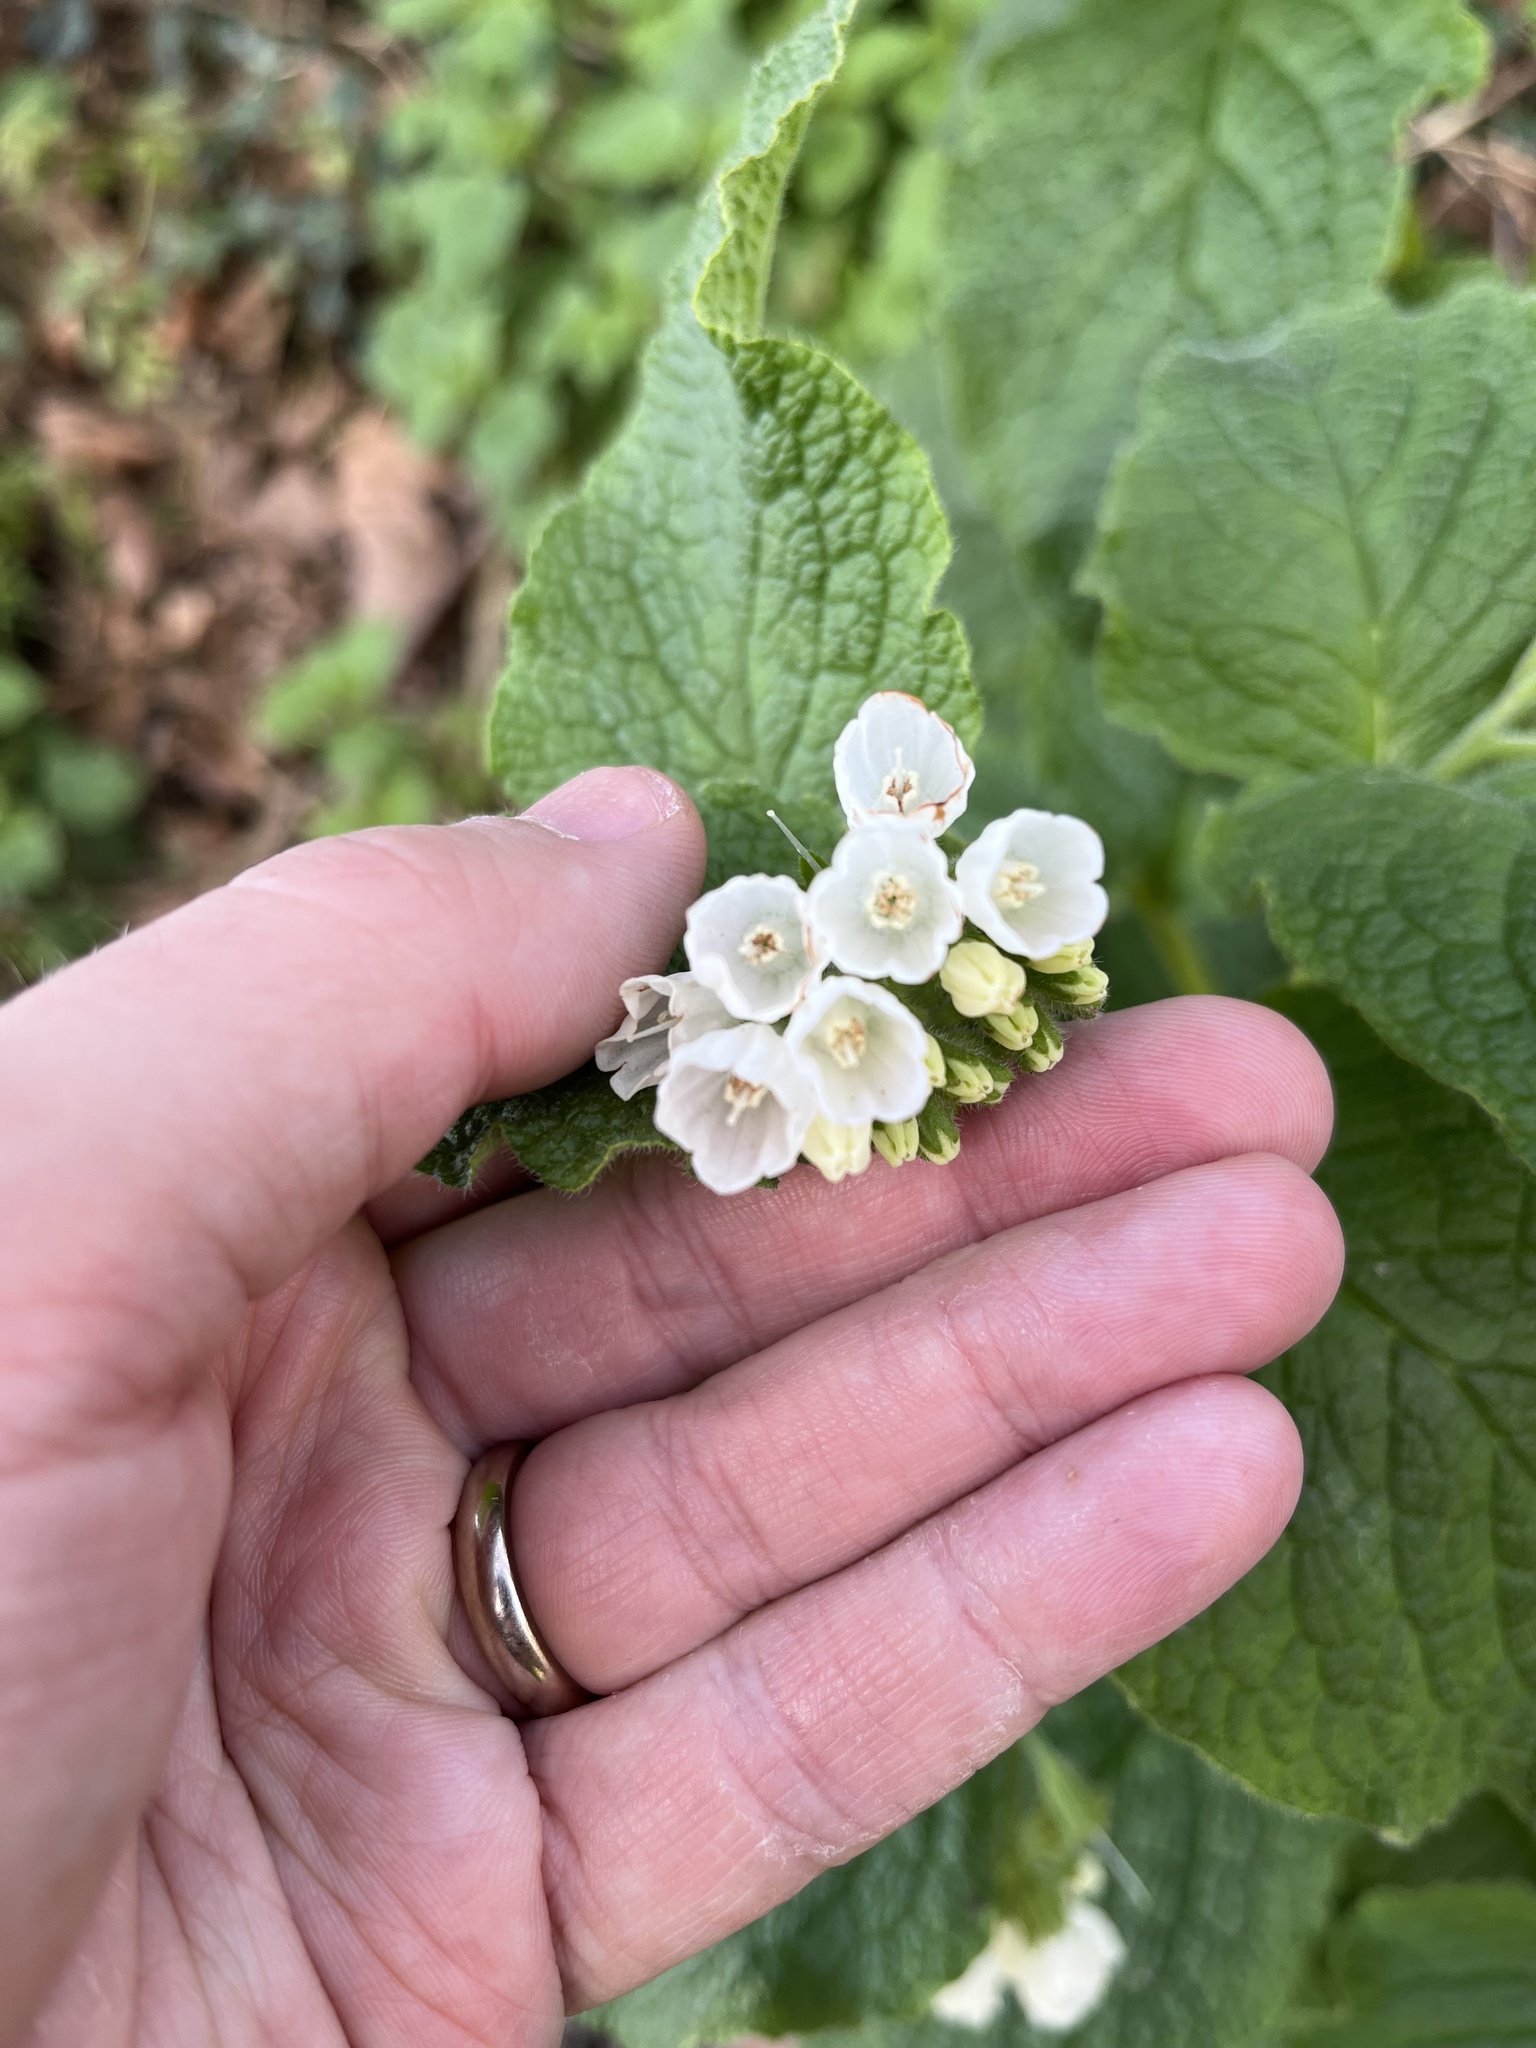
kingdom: Plantae
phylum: Tracheophyta
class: Magnoliopsida
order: Boraginales
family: Boraginaceae
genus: Symphytum
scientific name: Symphytum orientale
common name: White comfrey
